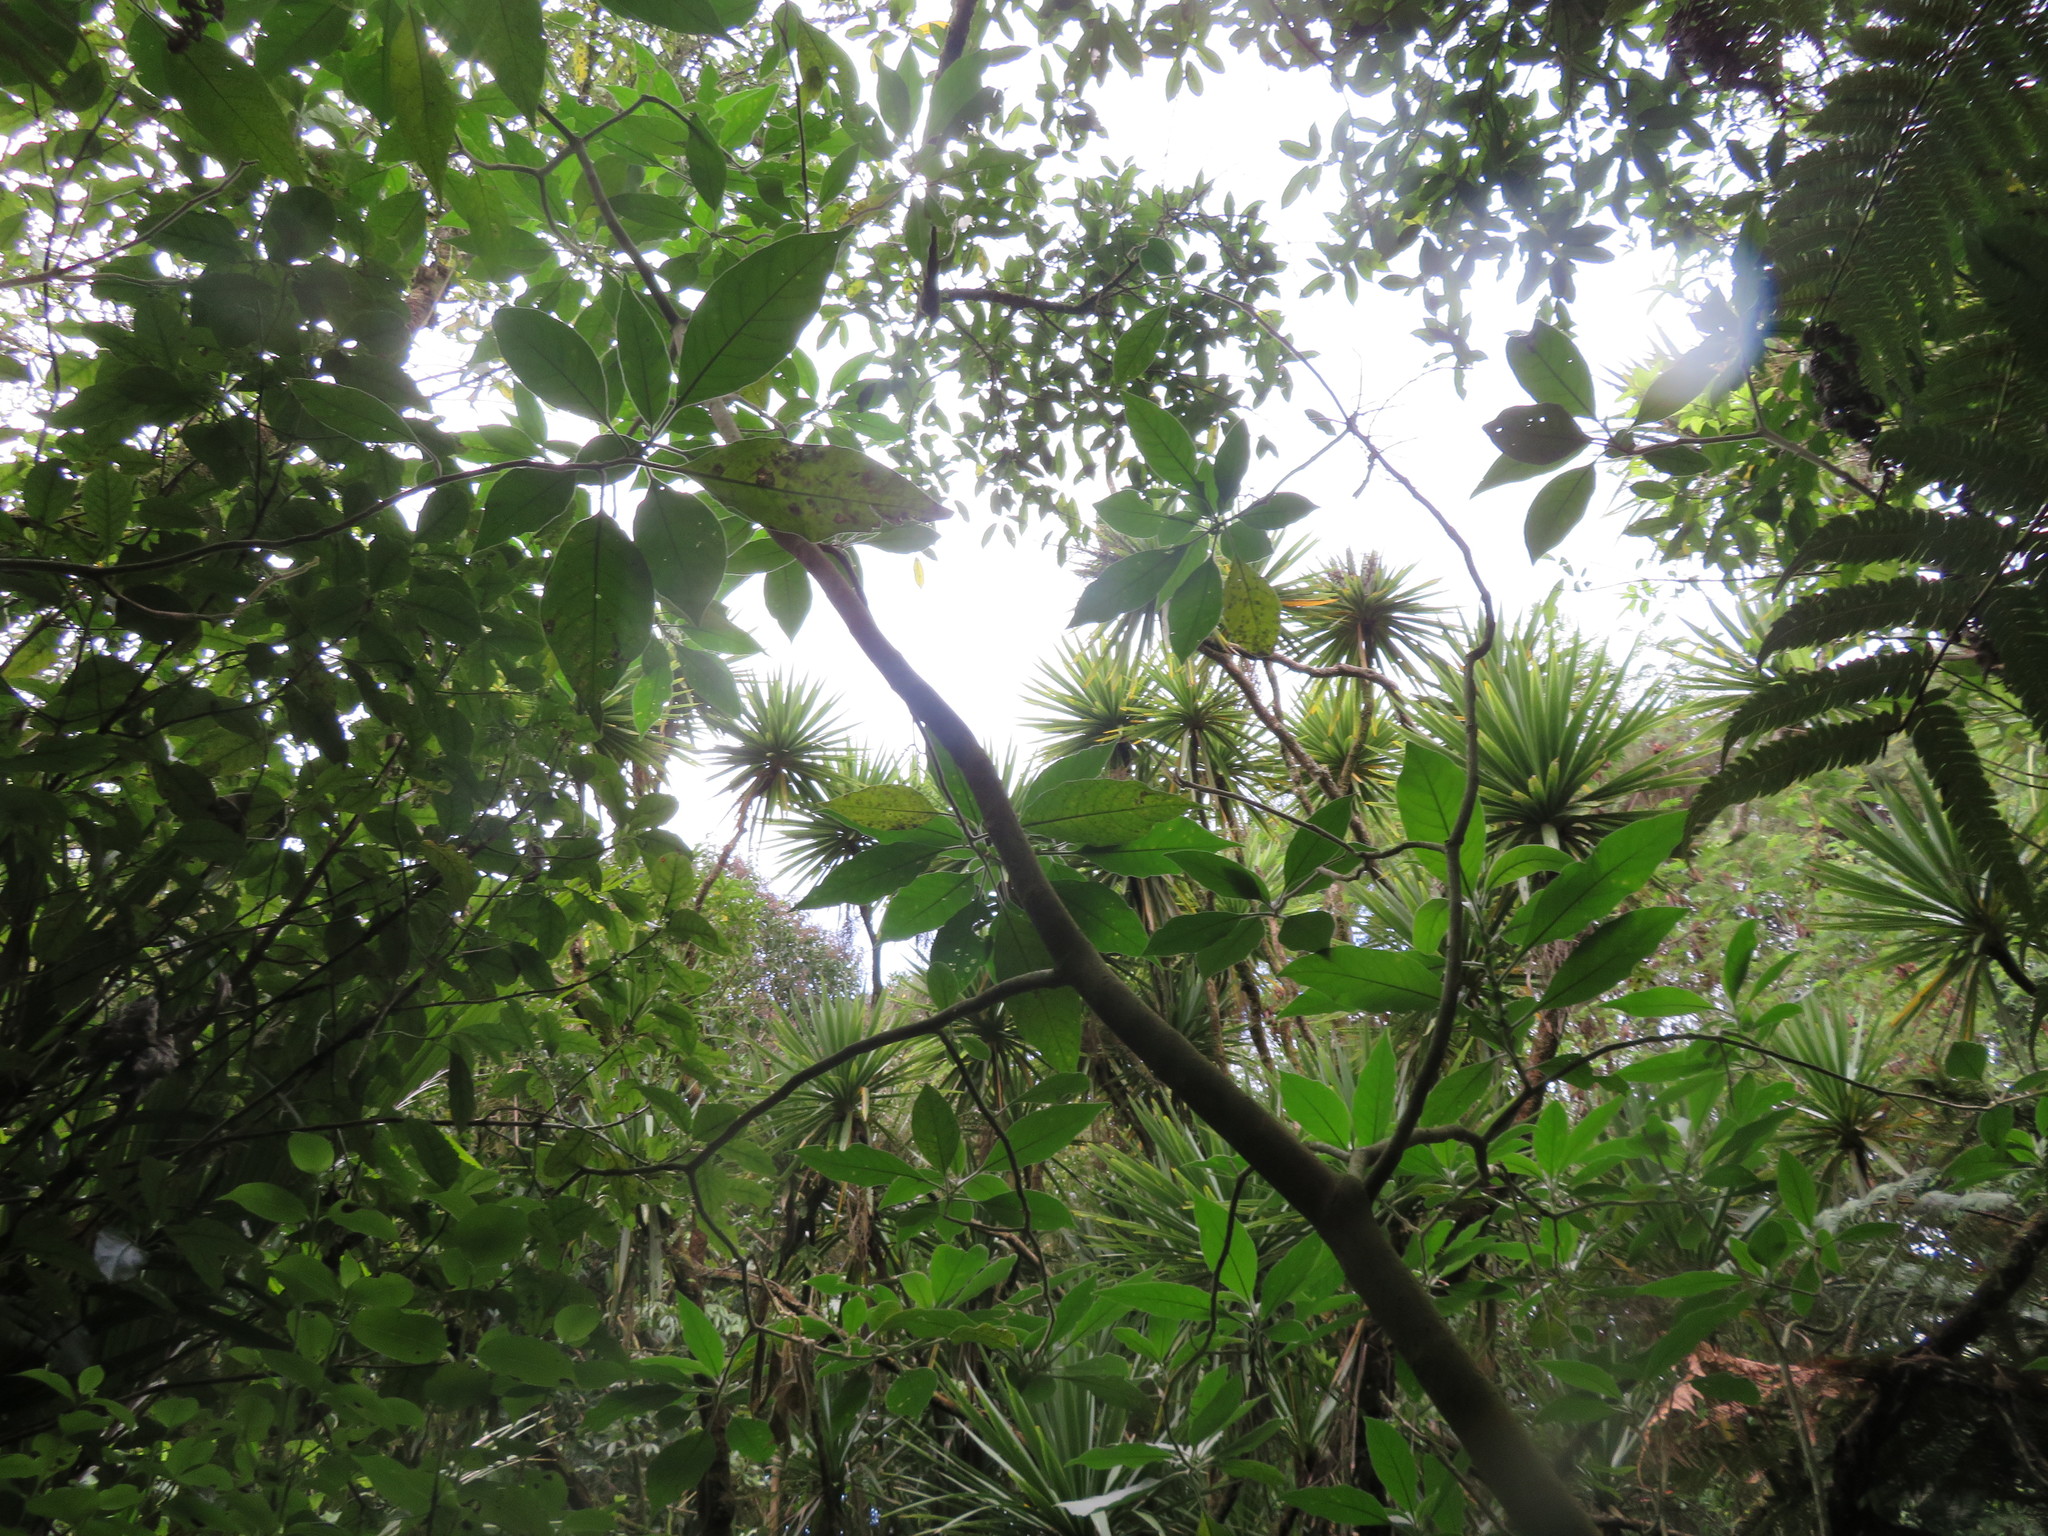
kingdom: Plantae
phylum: Tracheophyta
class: Liliopsida
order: Asparagales
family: Asparagaceae
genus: Cordyline
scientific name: Cordyline australis
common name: Cabbage-palm
